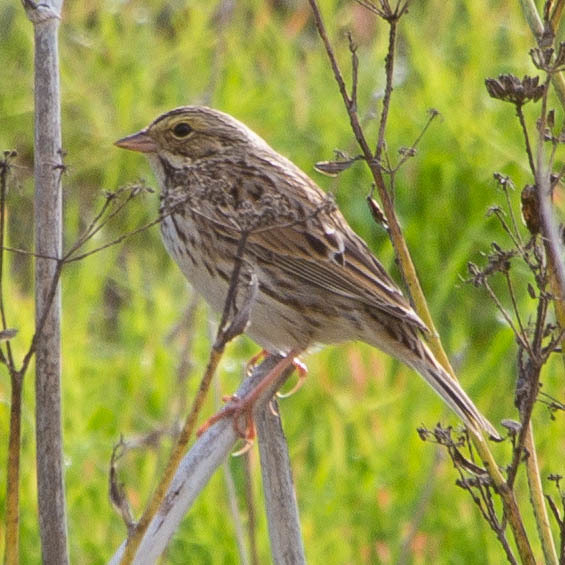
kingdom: Animalia
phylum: Chordata
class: Aves
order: Passeriformes
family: Passerellidae
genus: Passerculus
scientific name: Passerculus sandwichensis
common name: Savannah sparrow
